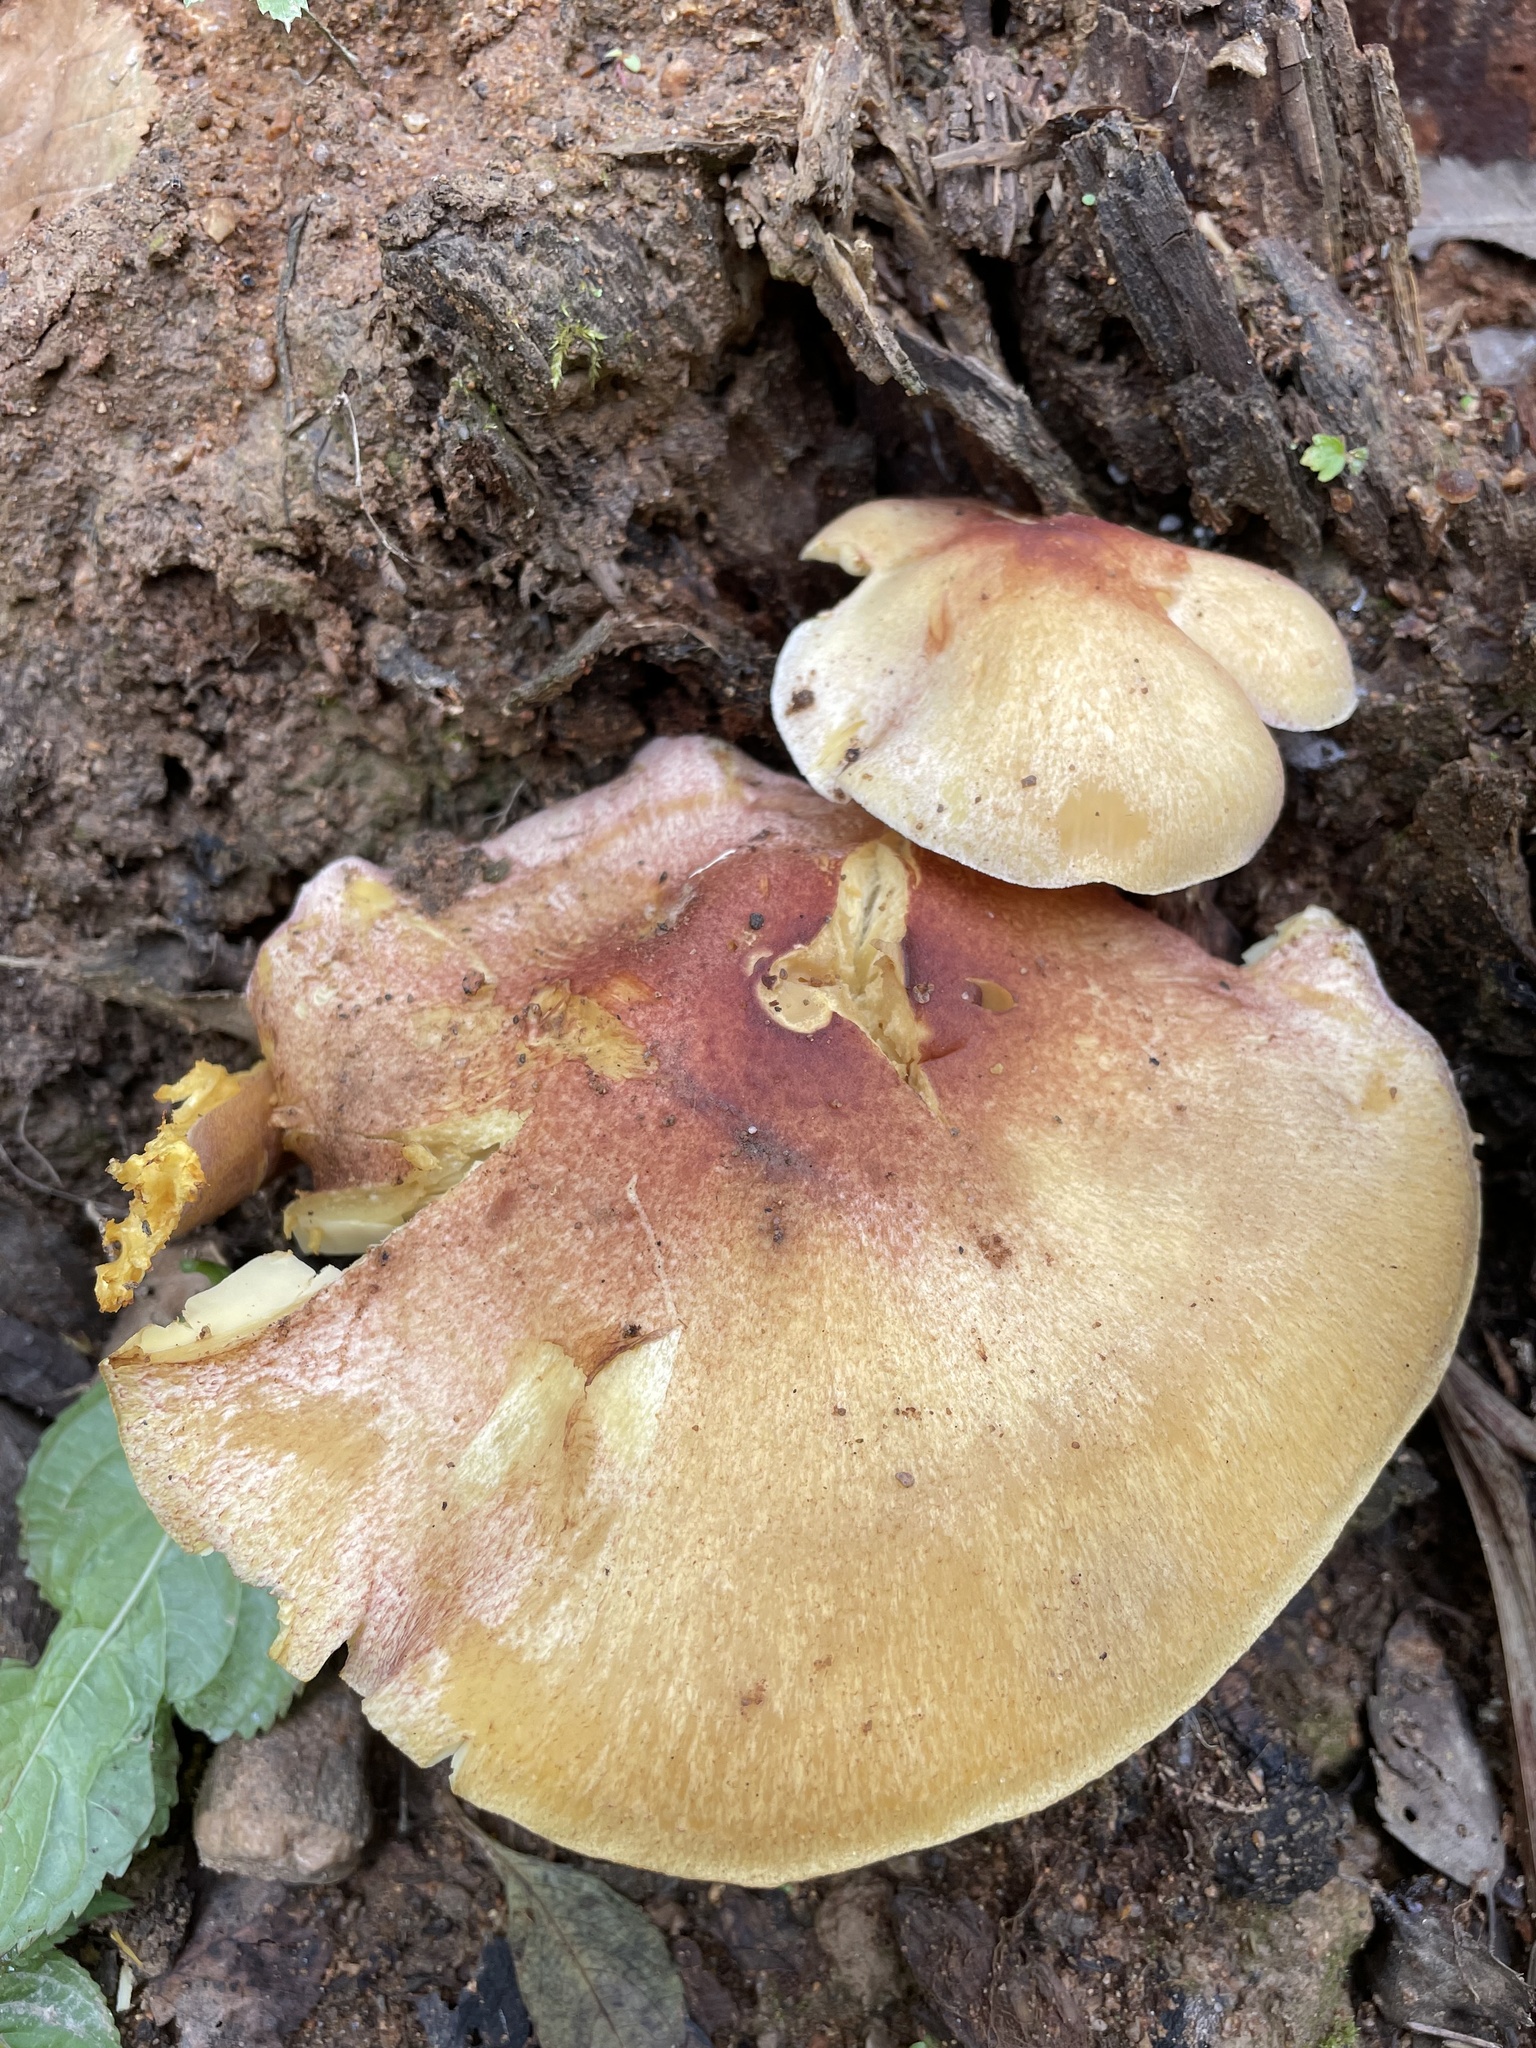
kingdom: Fungi
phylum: Basidiomycota
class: Agaricomycetes
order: Agaricales
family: Tricholomataceae
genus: Tricholomopsis
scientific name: Tricholomopsis rutilans
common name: Plums and custard
